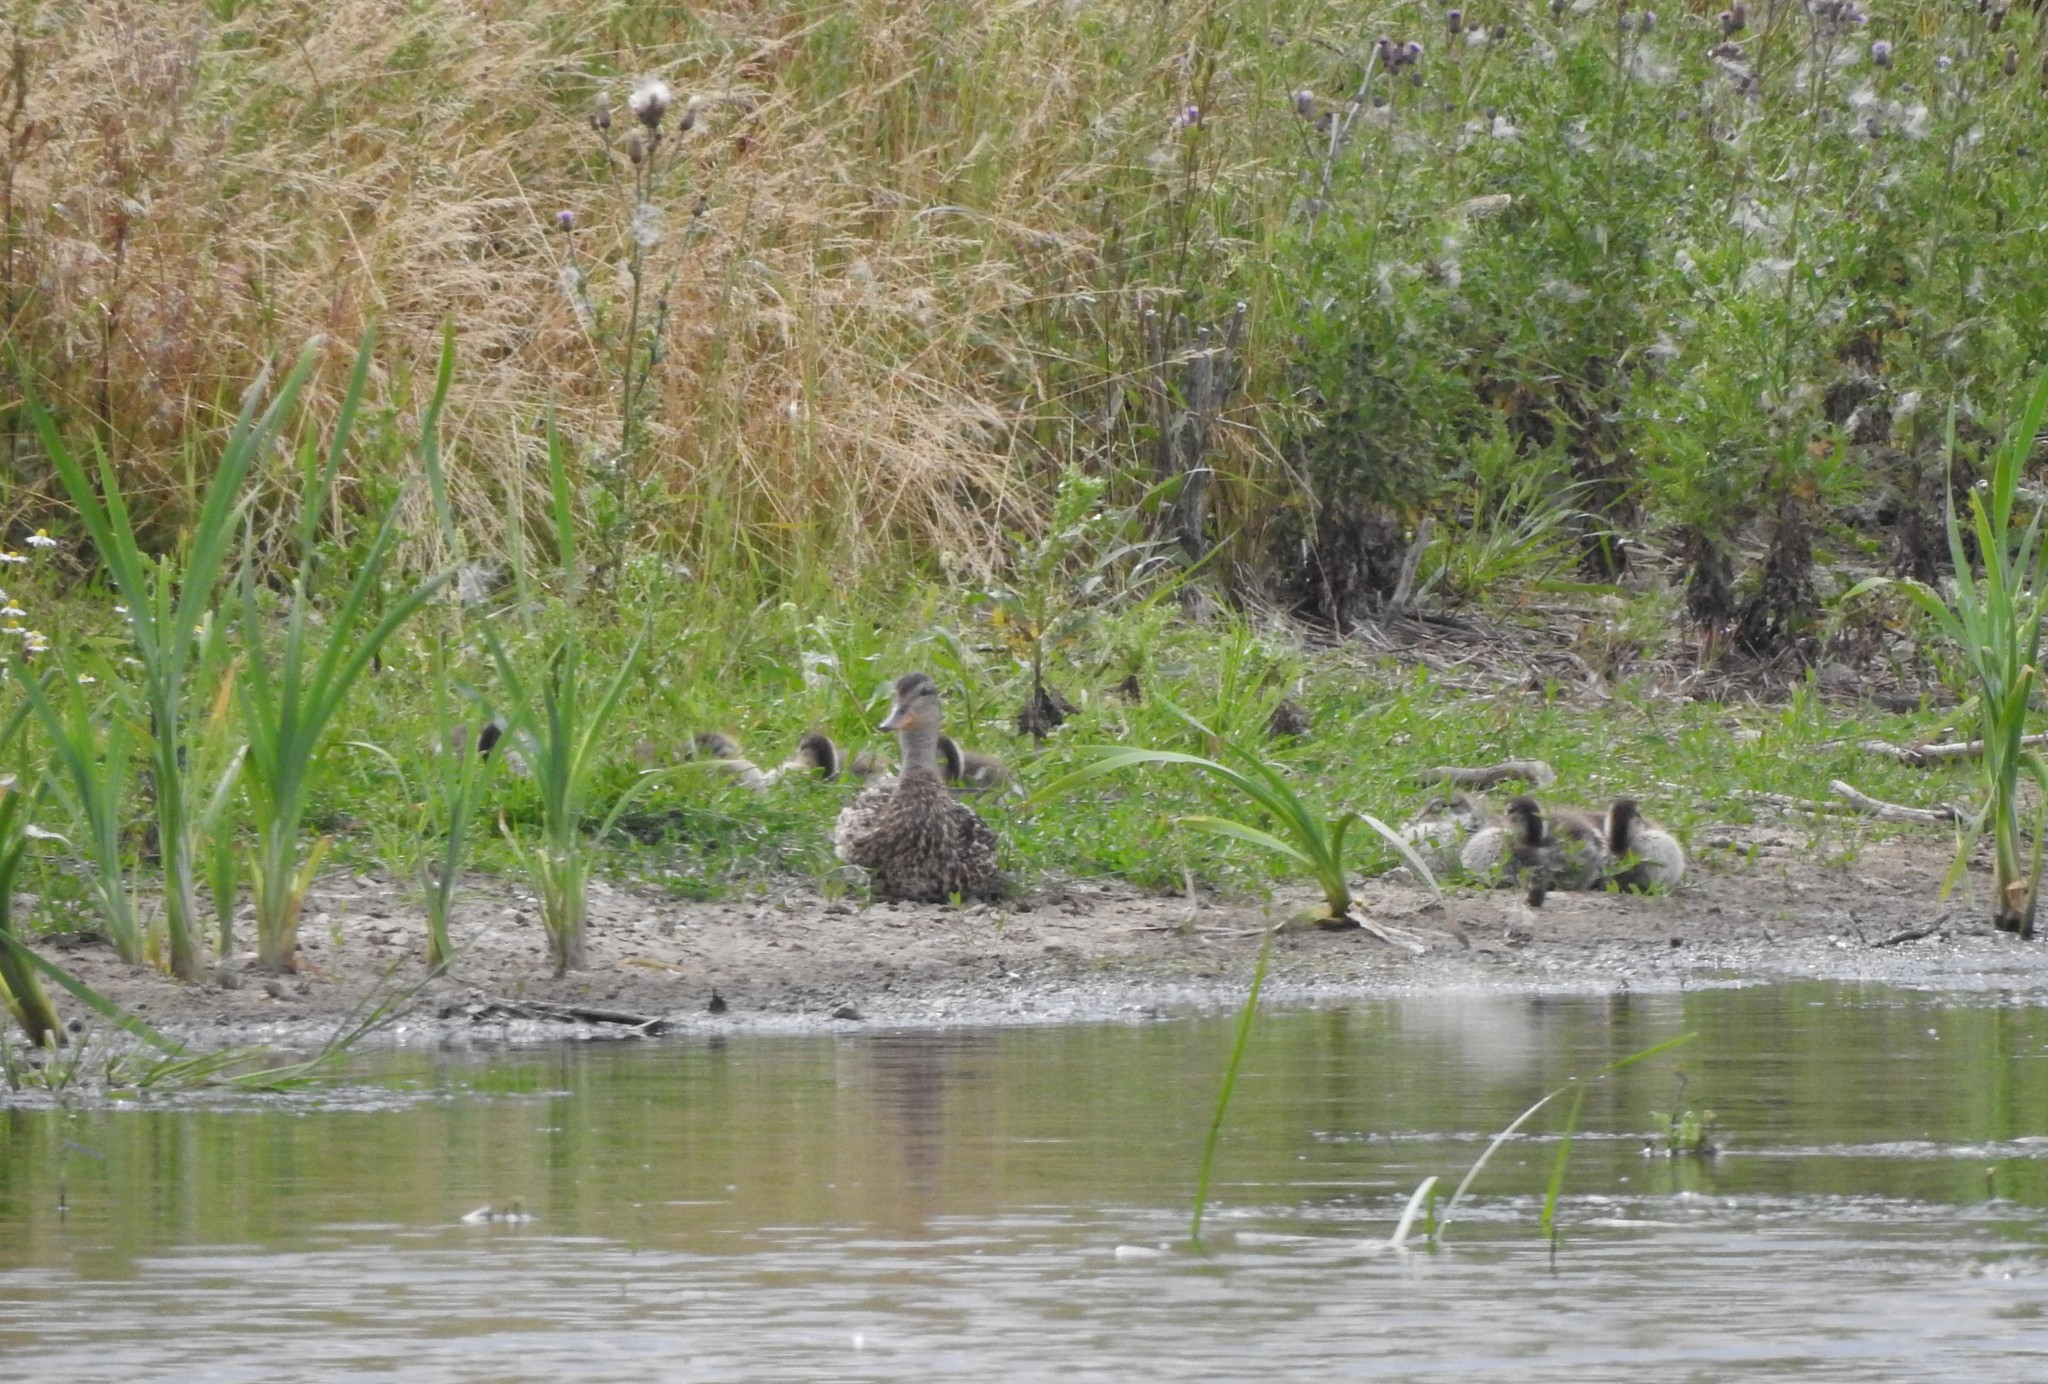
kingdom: Animalia
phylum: Chordata
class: Aves
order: Anseriformes
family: Anatidae
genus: Anas
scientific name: Anas platyrhynchos
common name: Mallard
